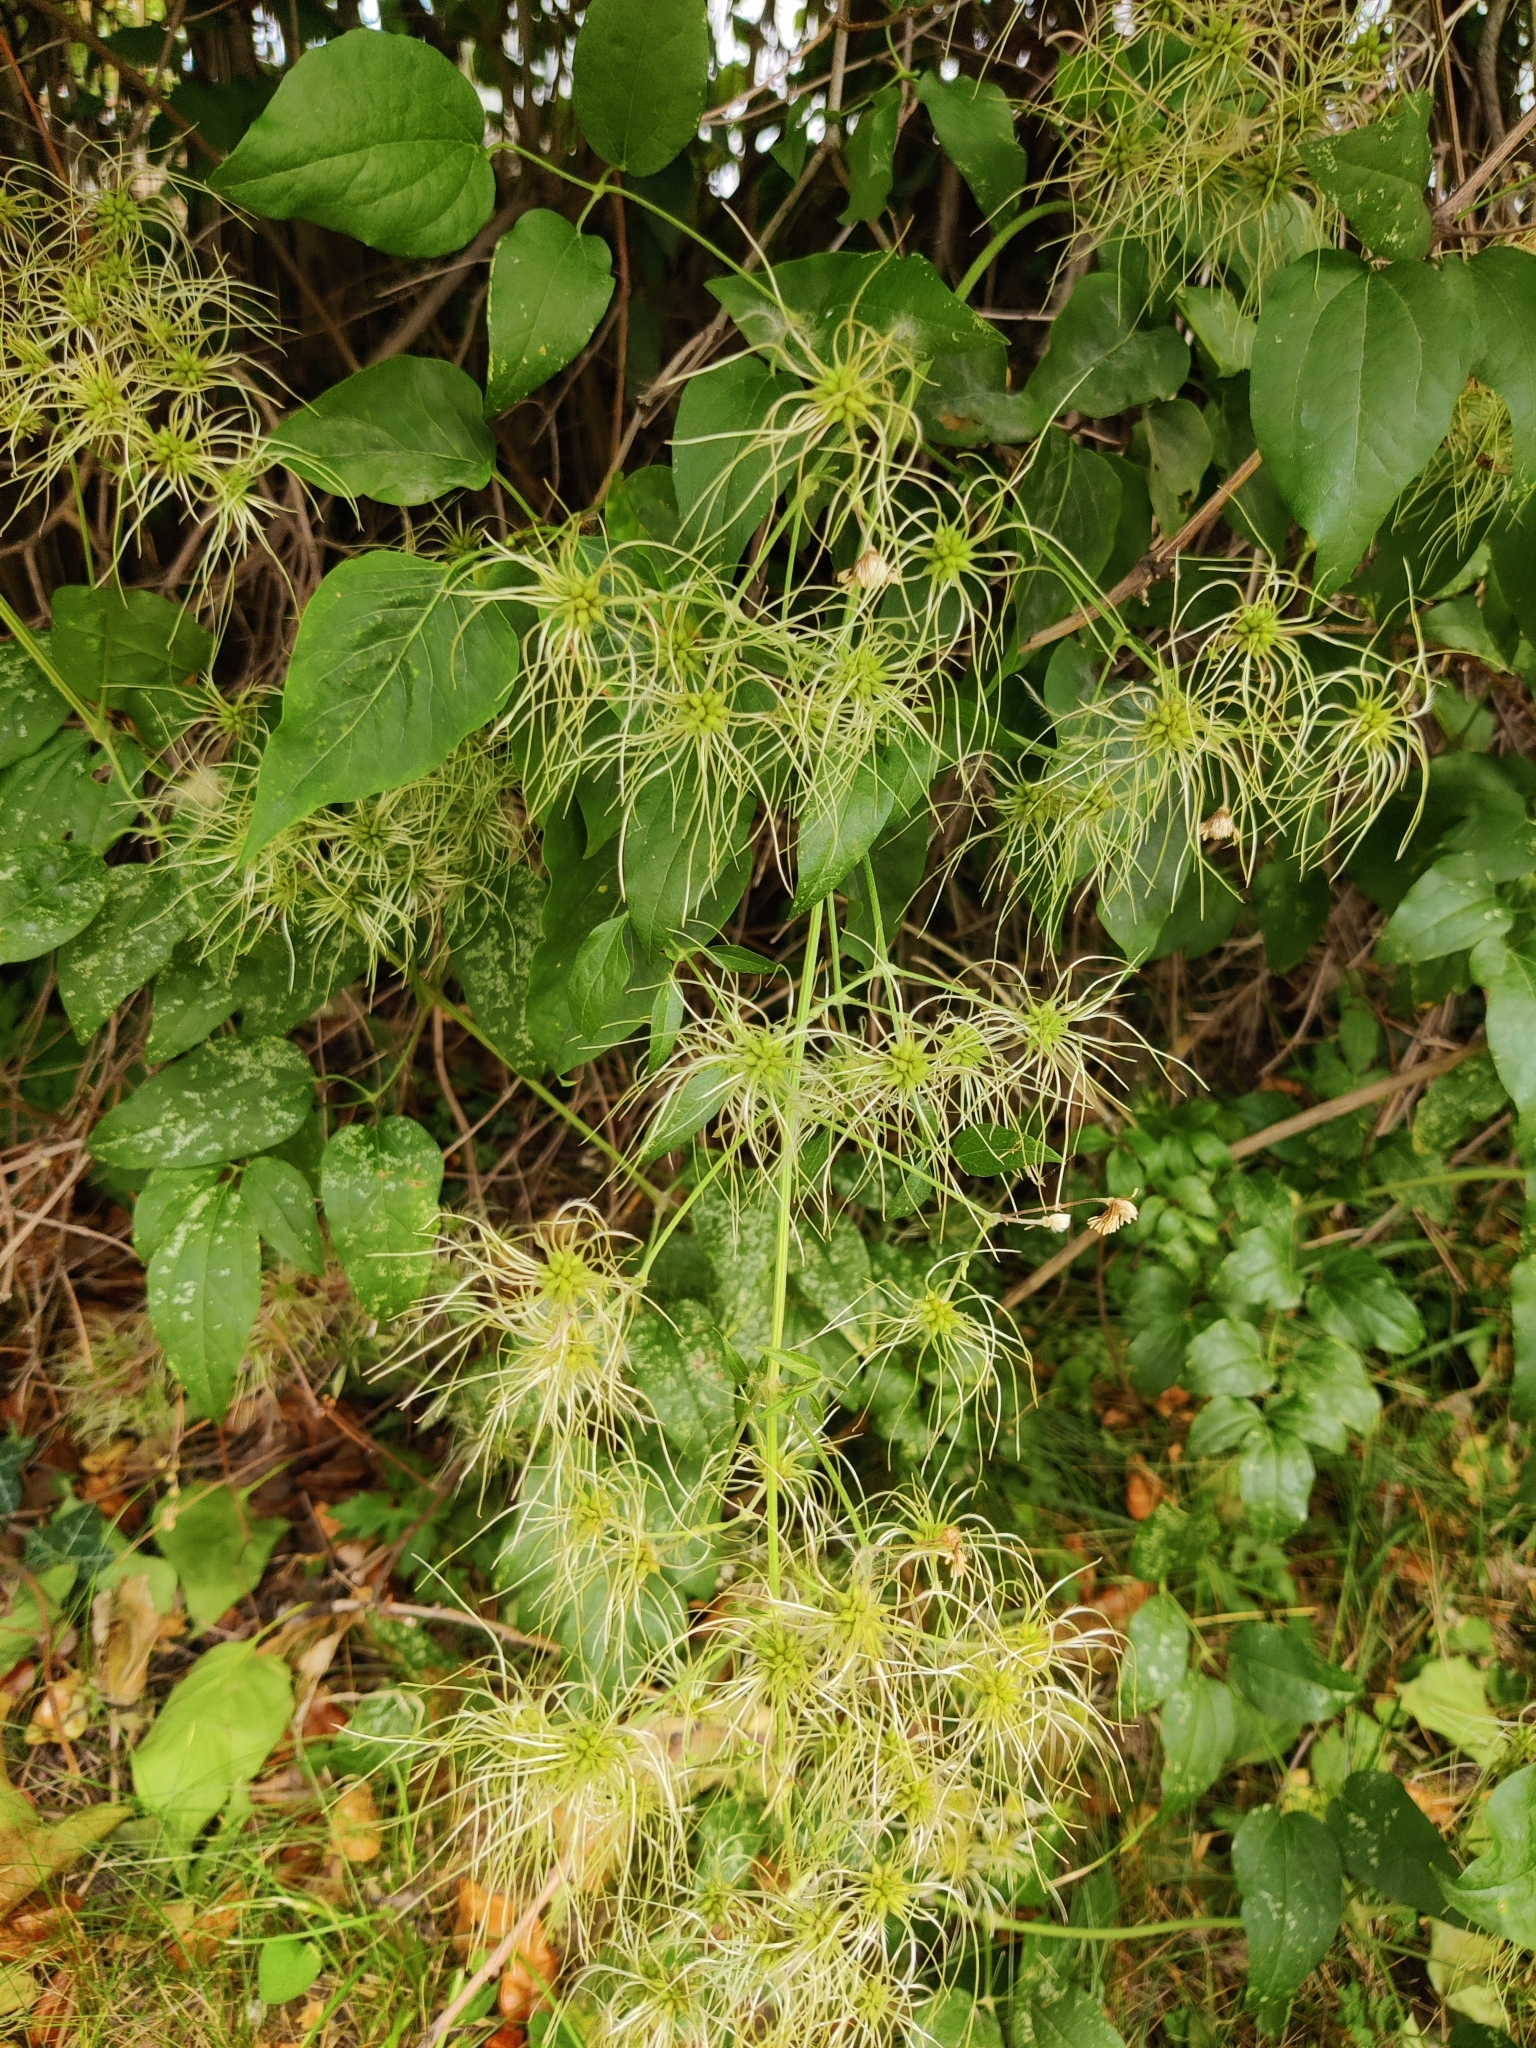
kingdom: Plantae
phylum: Tracheophyta
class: Magnoliopsida
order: Ranunculales
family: Ranunculaceae
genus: Clematis
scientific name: Clematis vitalba
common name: Evergreen clematis
